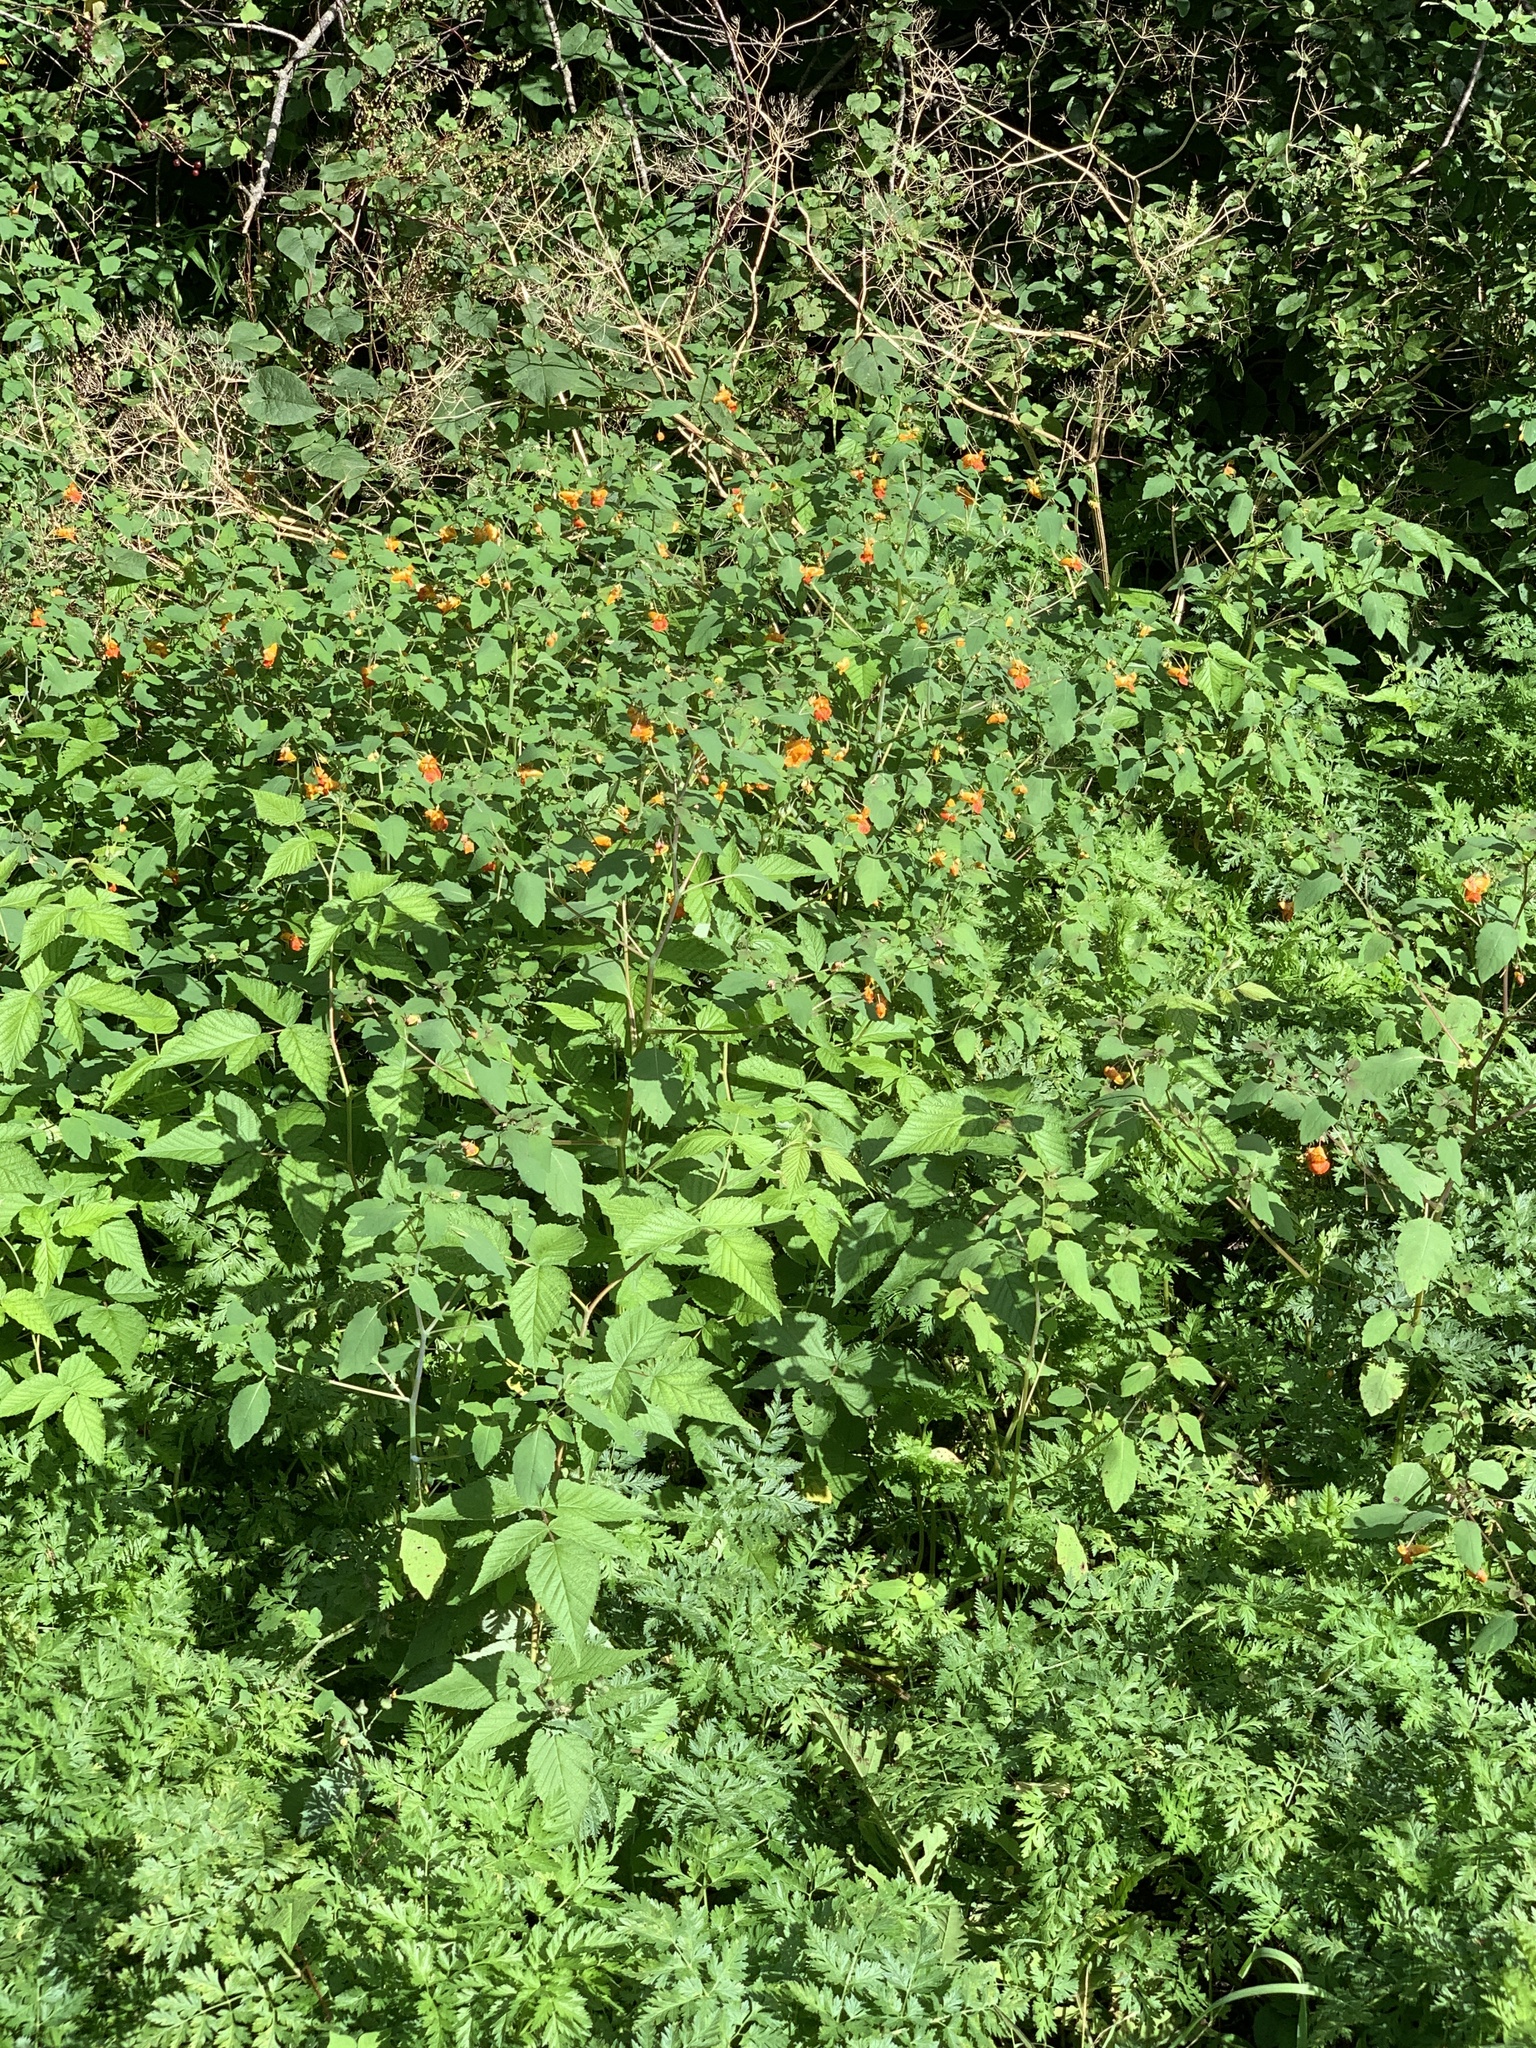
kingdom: Plantae
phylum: Tracheophyta
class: Magnoliopsida
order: Ericales
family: Balsaminaceae
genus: Impatiens
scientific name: Impatiens capensis
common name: Orange balsam
